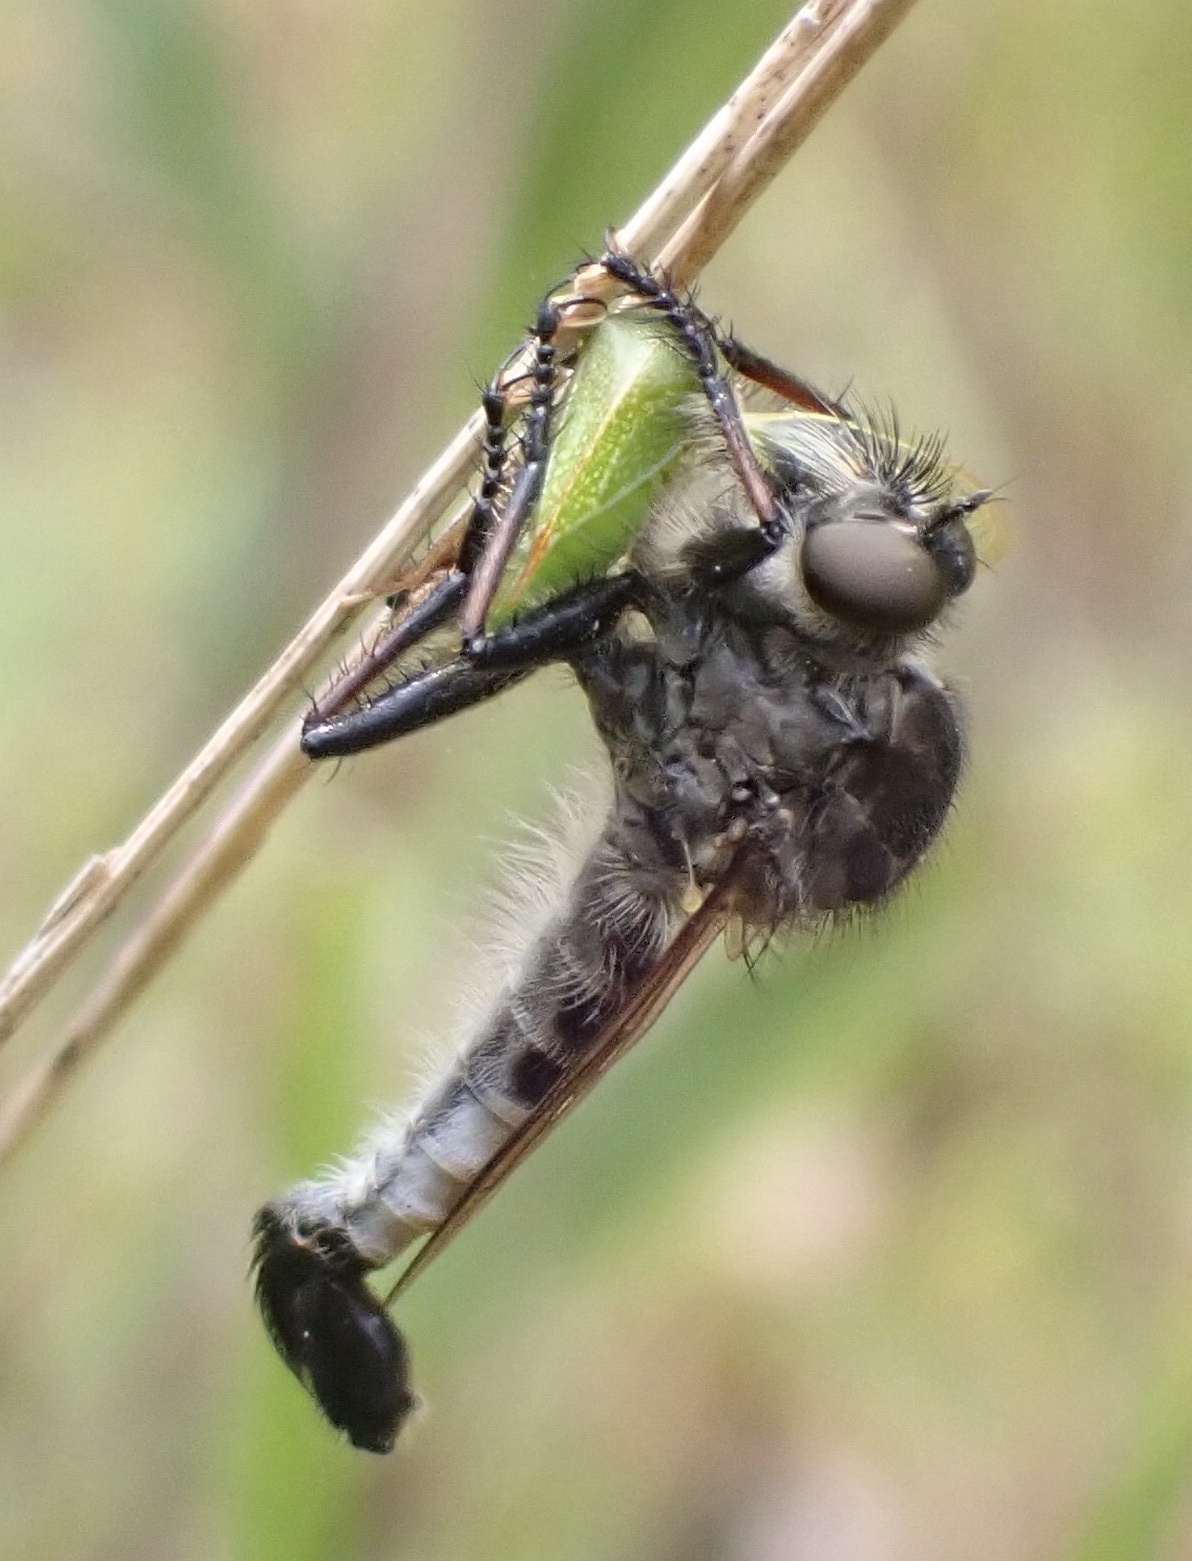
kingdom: Animalia
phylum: Arthropoda
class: Insecta
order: Diptera
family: Asilidae
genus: Efferia
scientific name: Efferia aestuans
